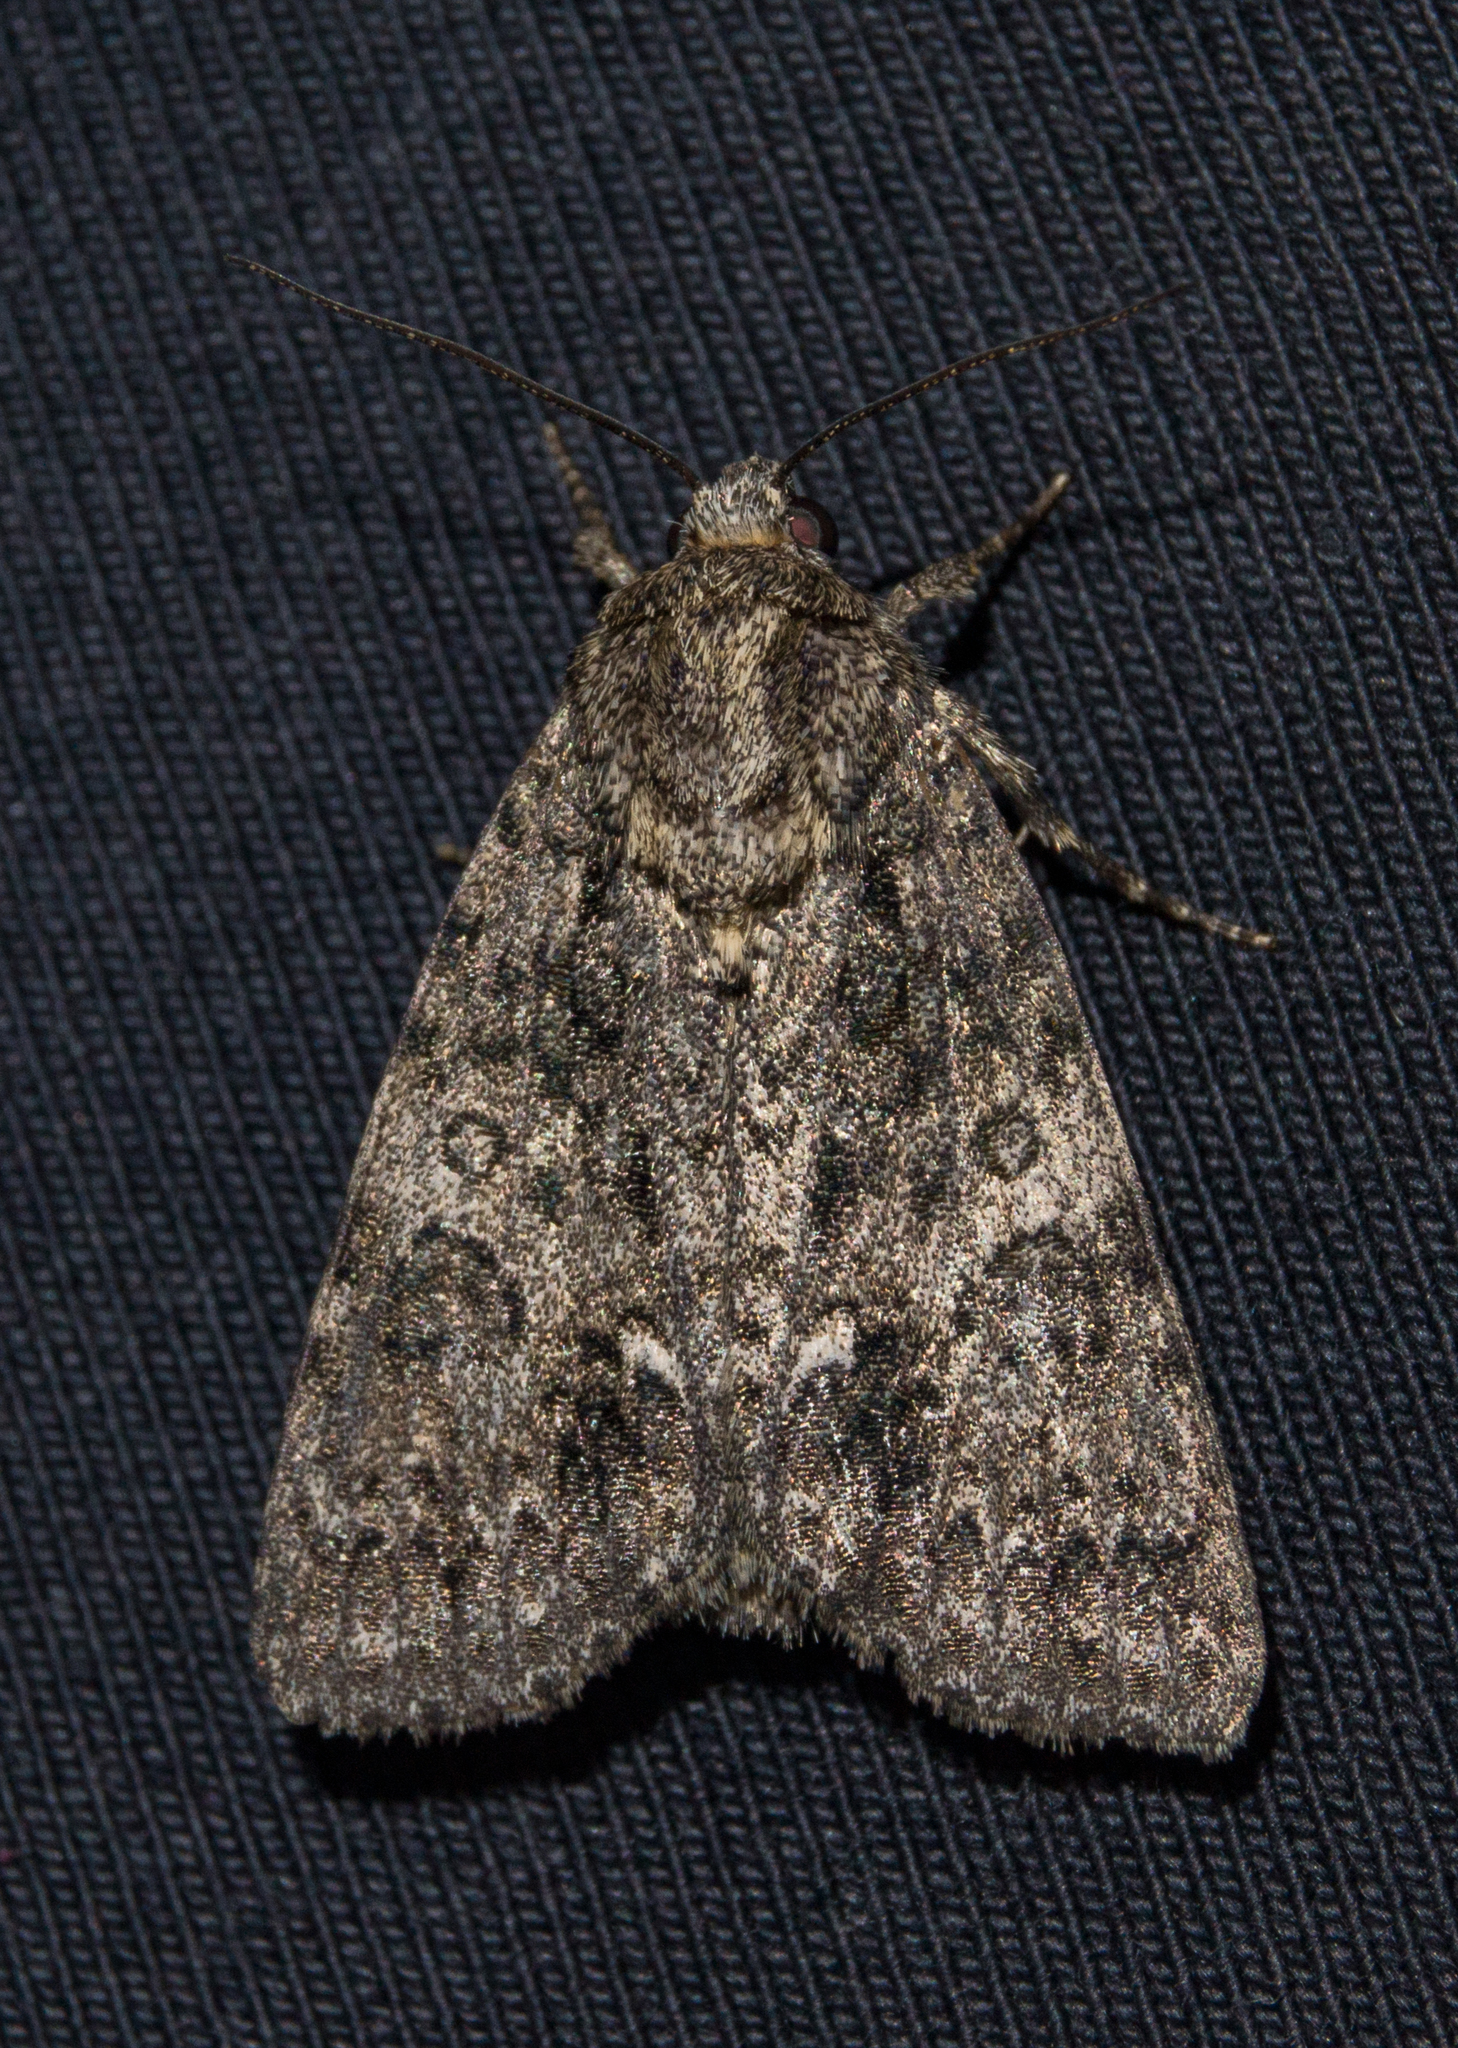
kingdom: Animalia
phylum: Arthropoda
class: Insecta
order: Lepidoptera
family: Noctuidae
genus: Acronicta
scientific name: Acronicta rumicis
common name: Knot grass
